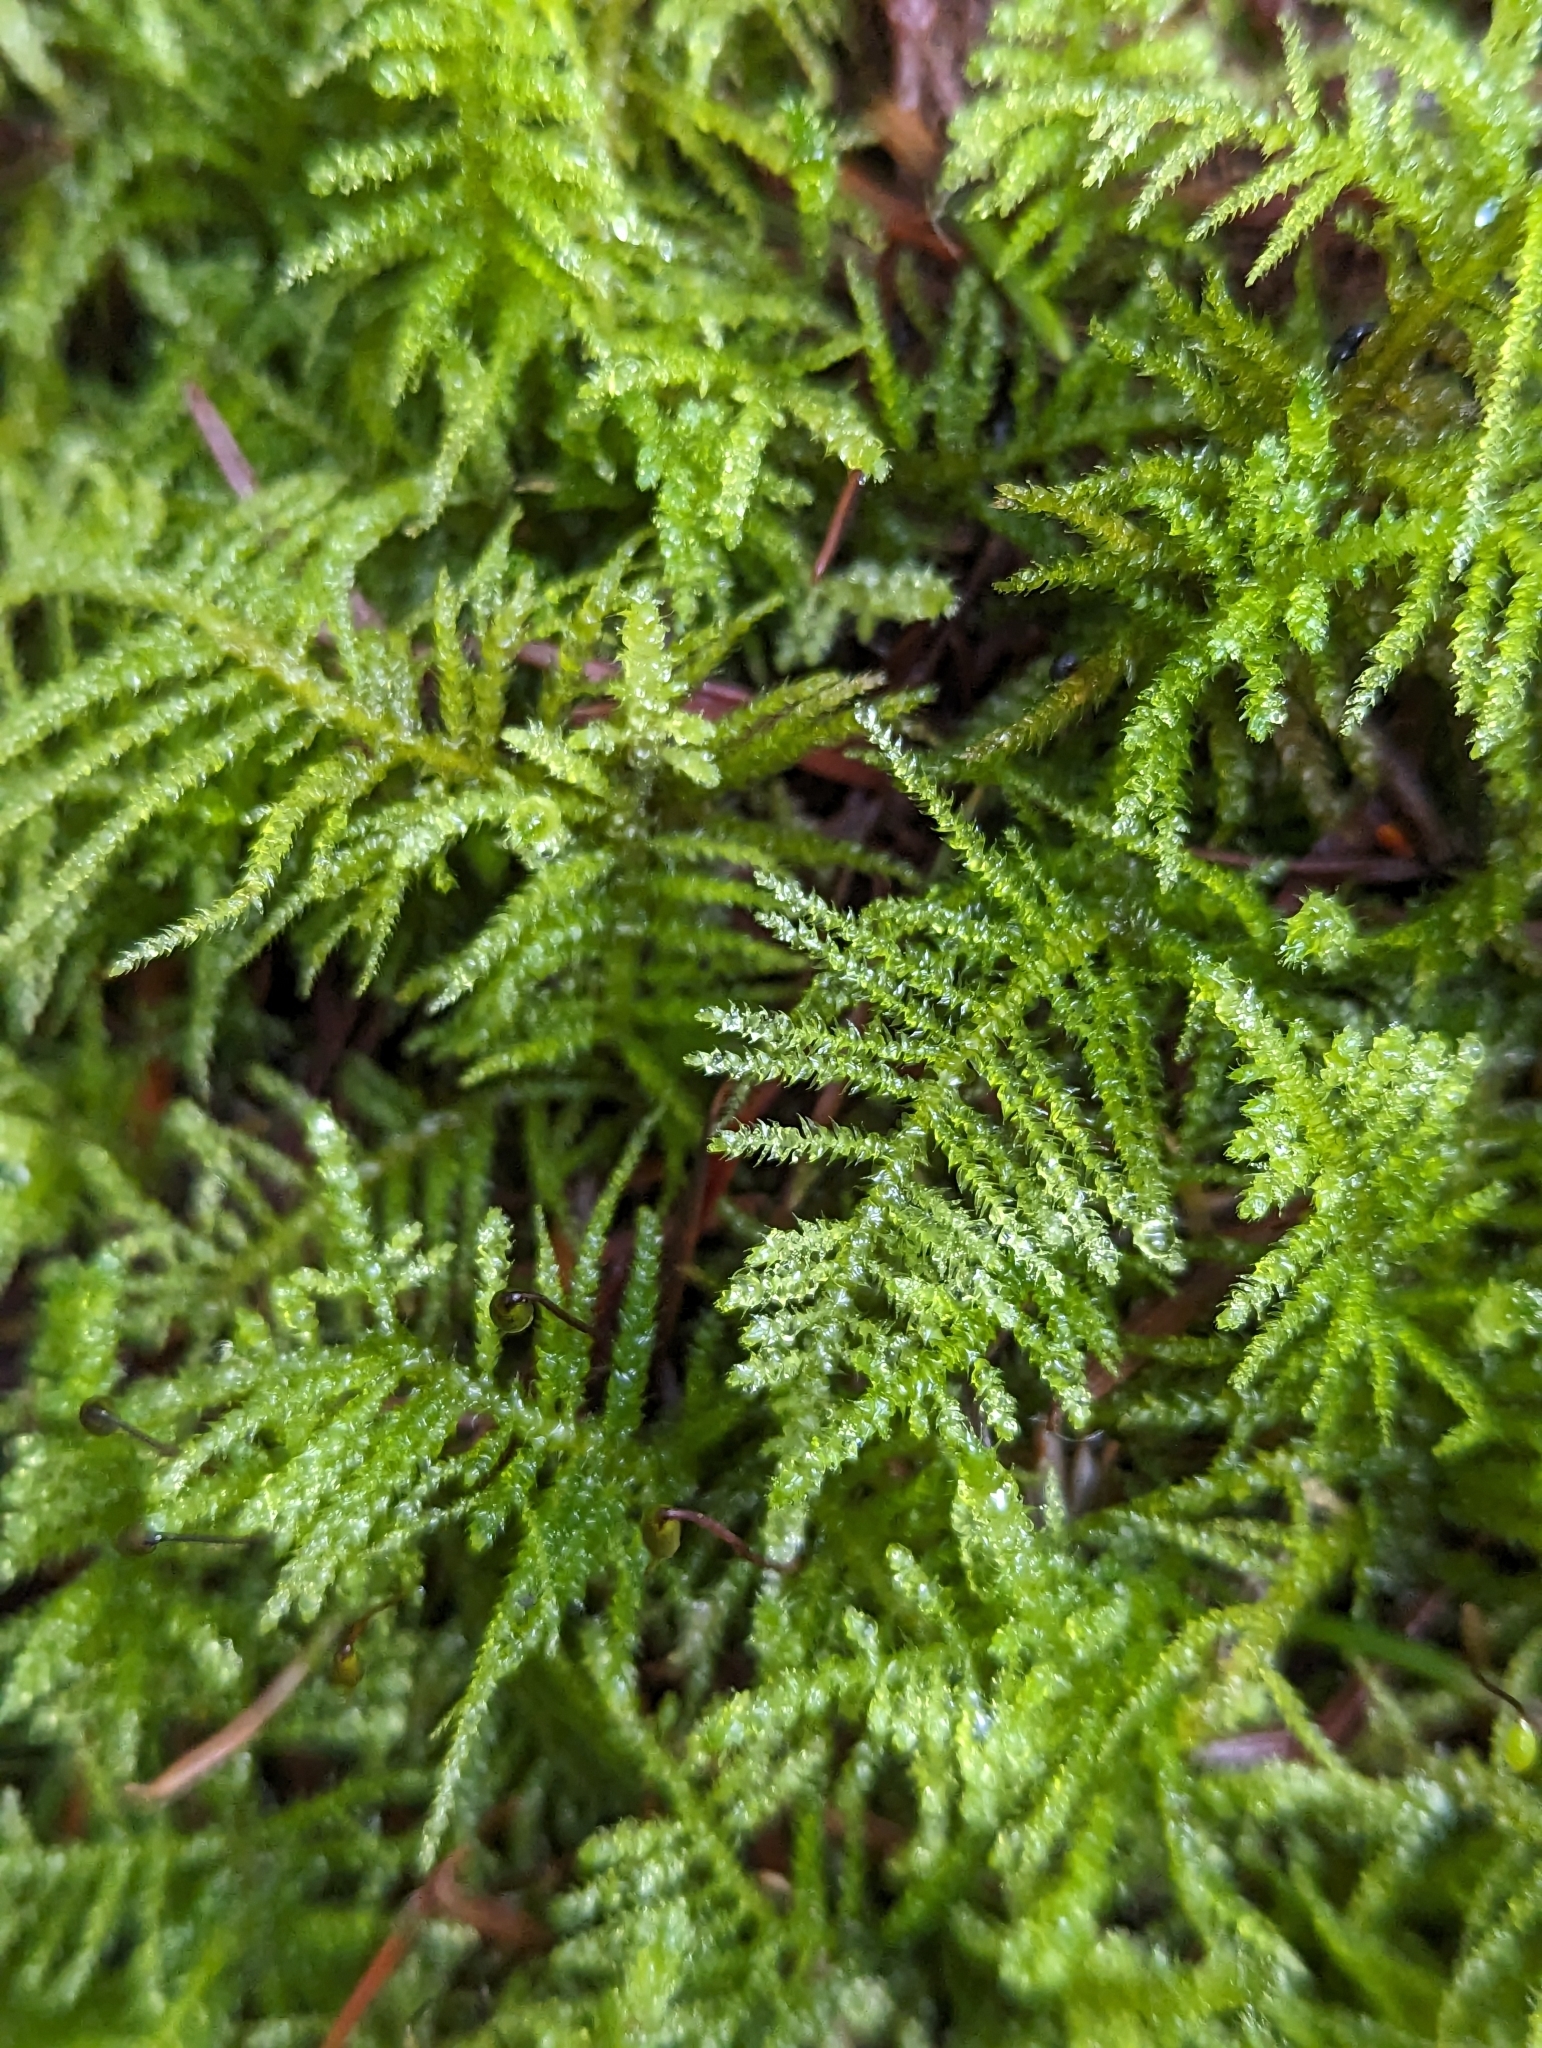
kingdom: Plantae
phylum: Bryophyta
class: Bryopsida
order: Hypnales
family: Brachytheciaceae
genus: Kindbergia
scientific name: Kindbergia oregana
